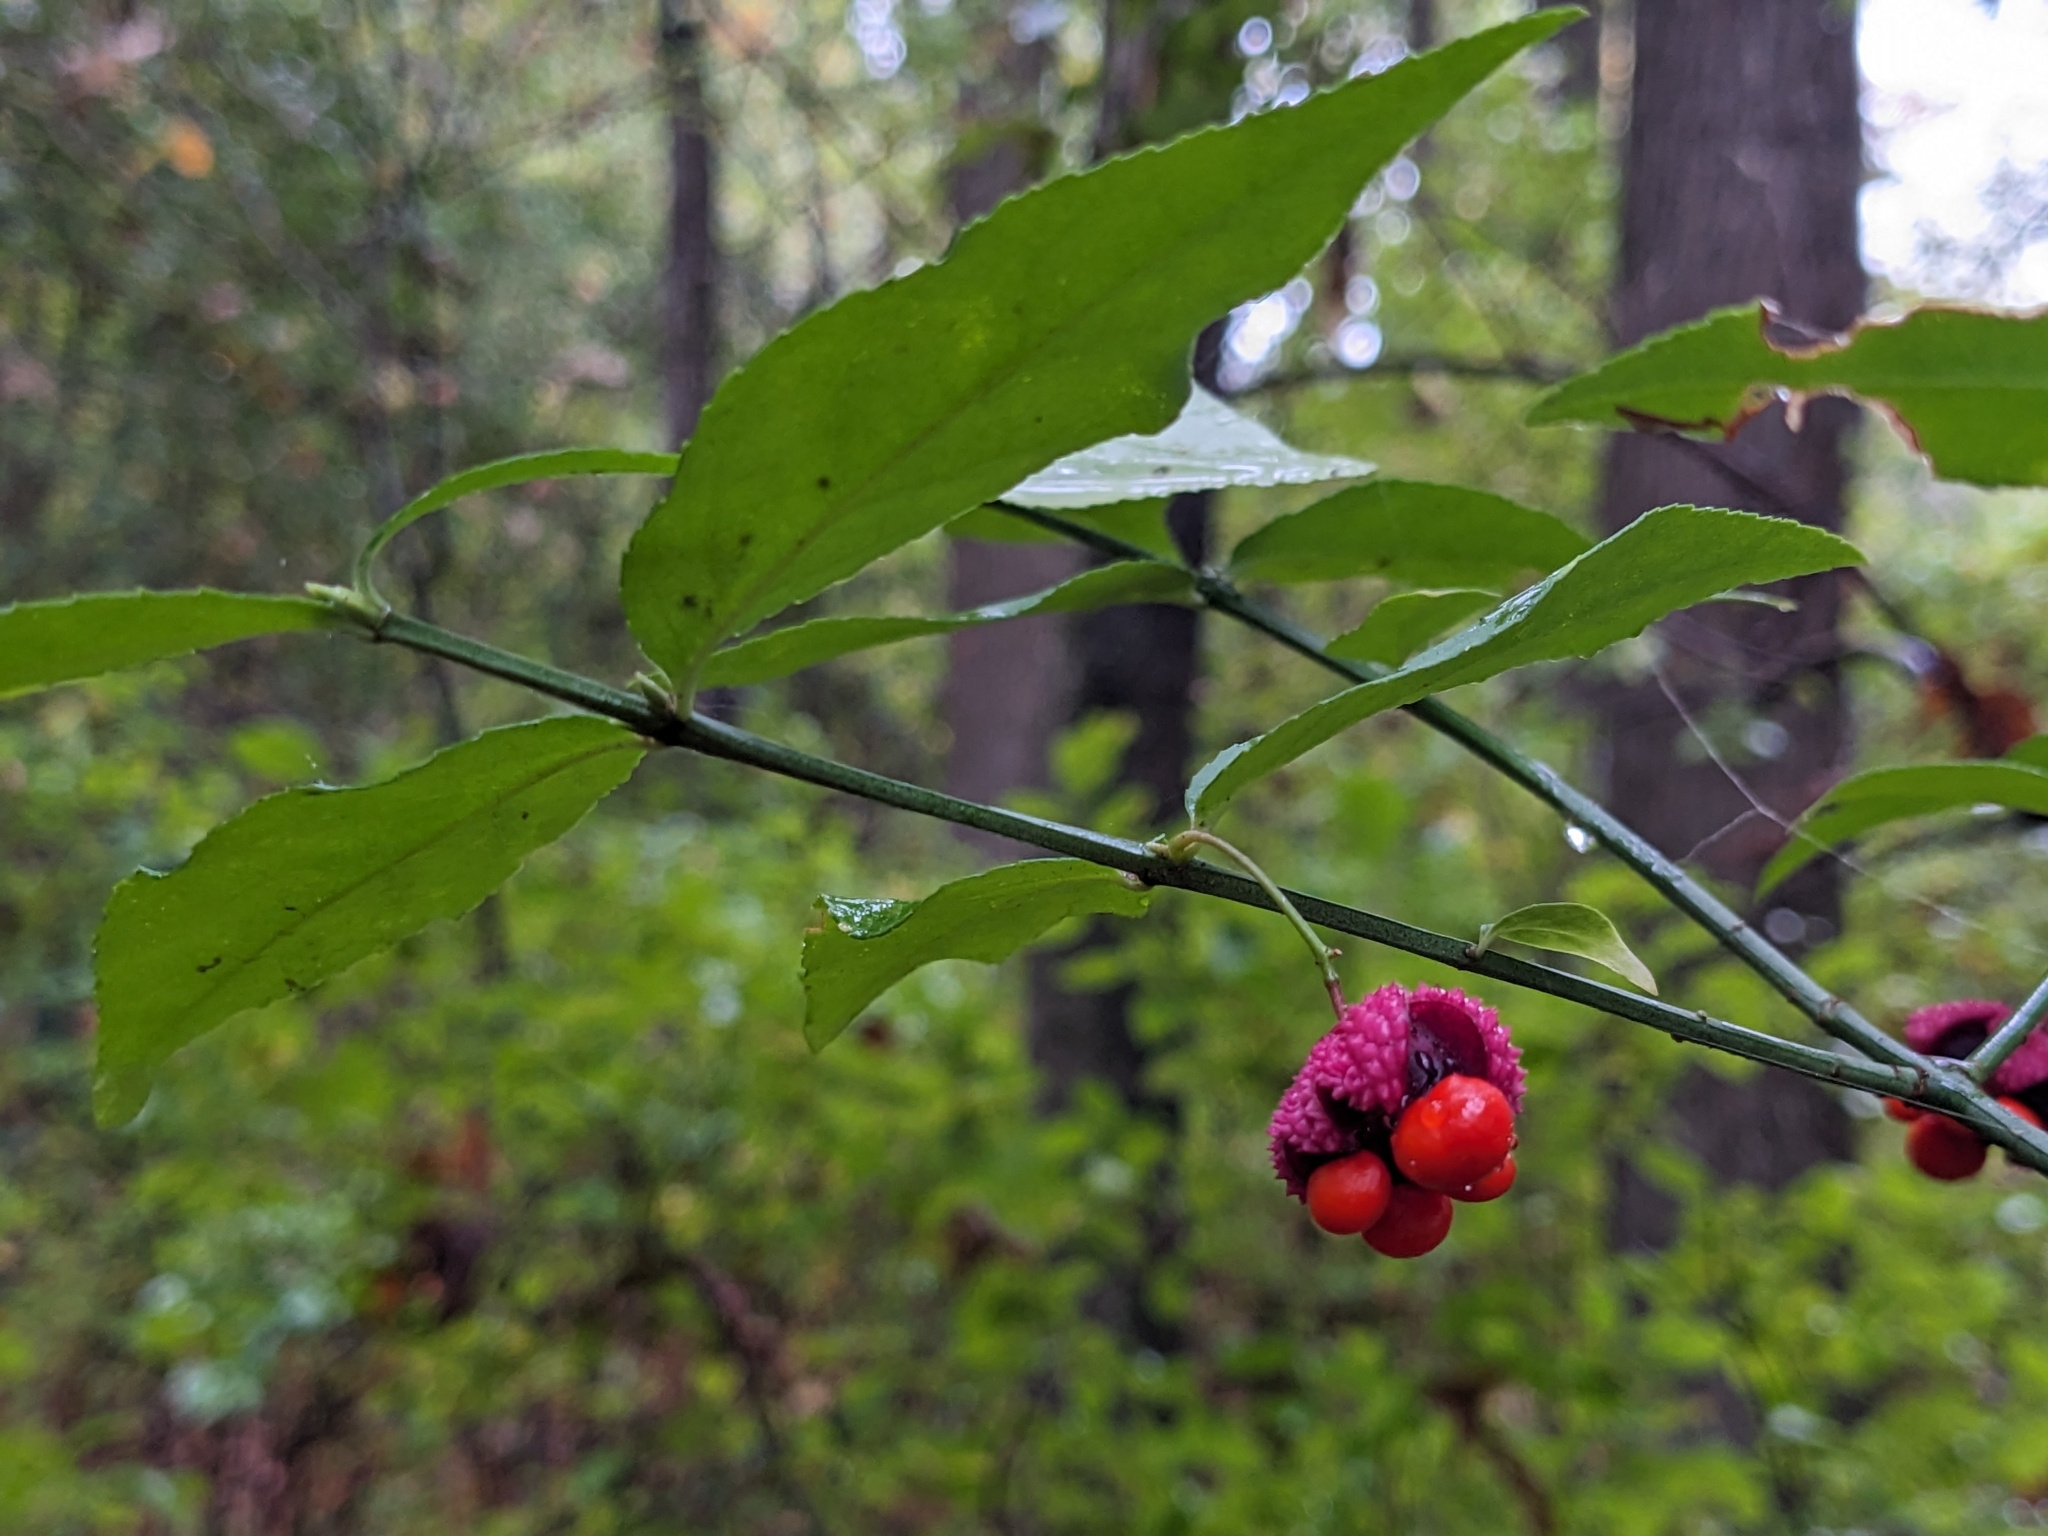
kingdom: Plantae
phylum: Tracheophyta
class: Magnoliopsida
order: Celastrales
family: Celastraceae
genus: Euonymus
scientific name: Euonymus americanus
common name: Bursting-heart
